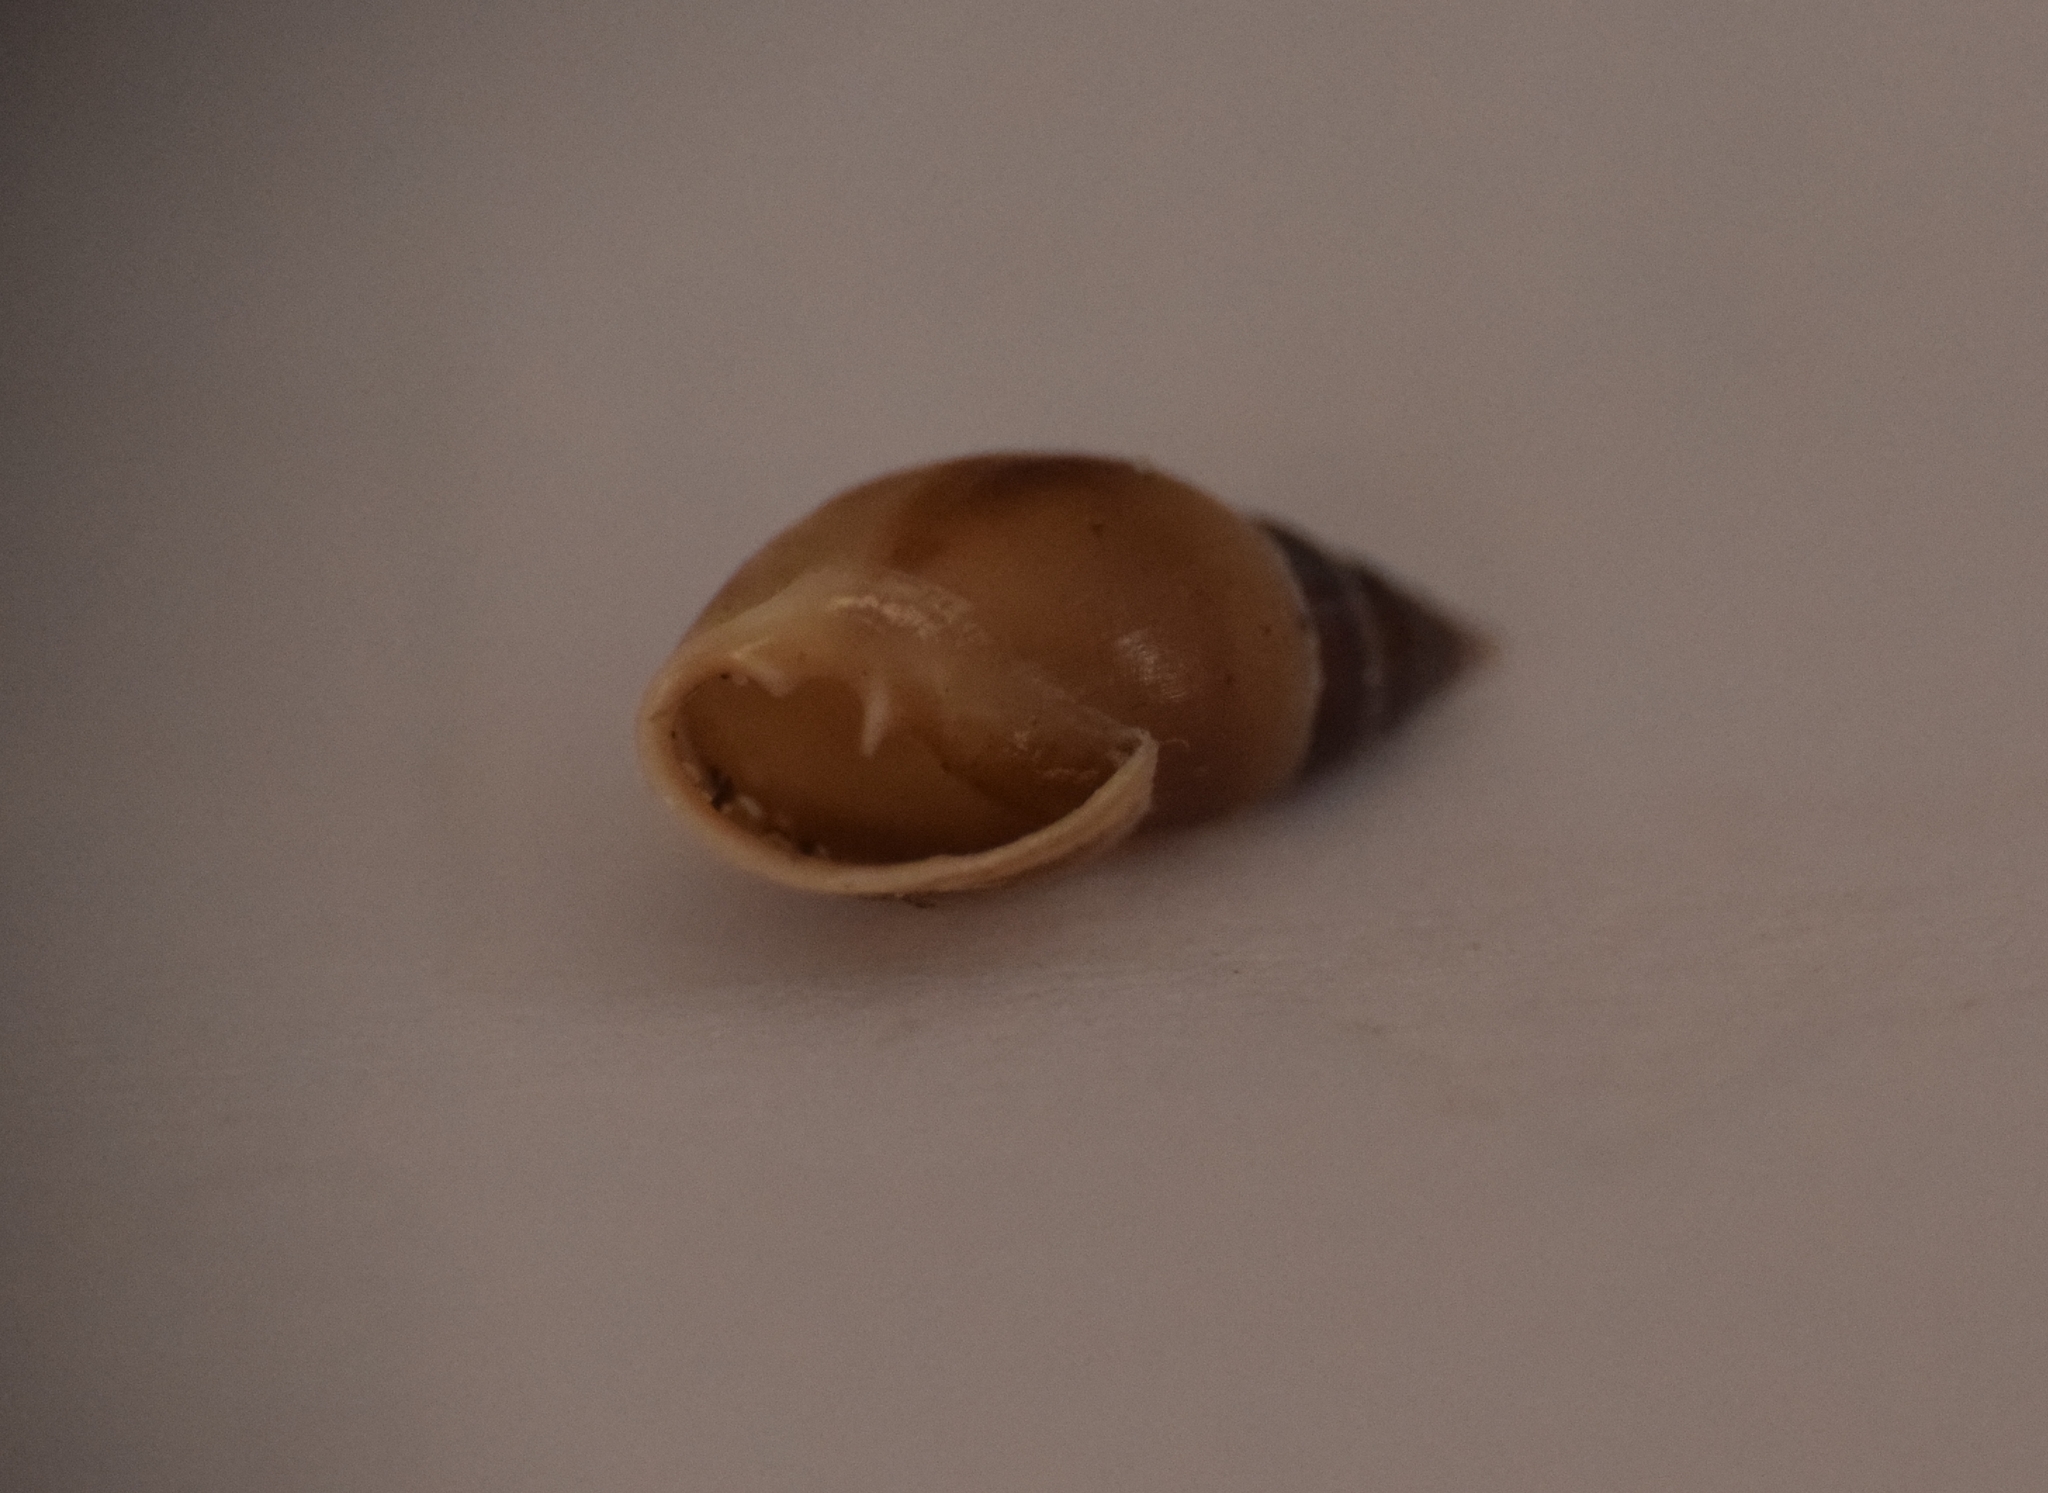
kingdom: Animalia
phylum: Mollusca
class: Gastropoda
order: Ellobiida
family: Ellobiidae
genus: Myosotella
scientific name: Myosotella myosotis
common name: Mouse-eared snail
